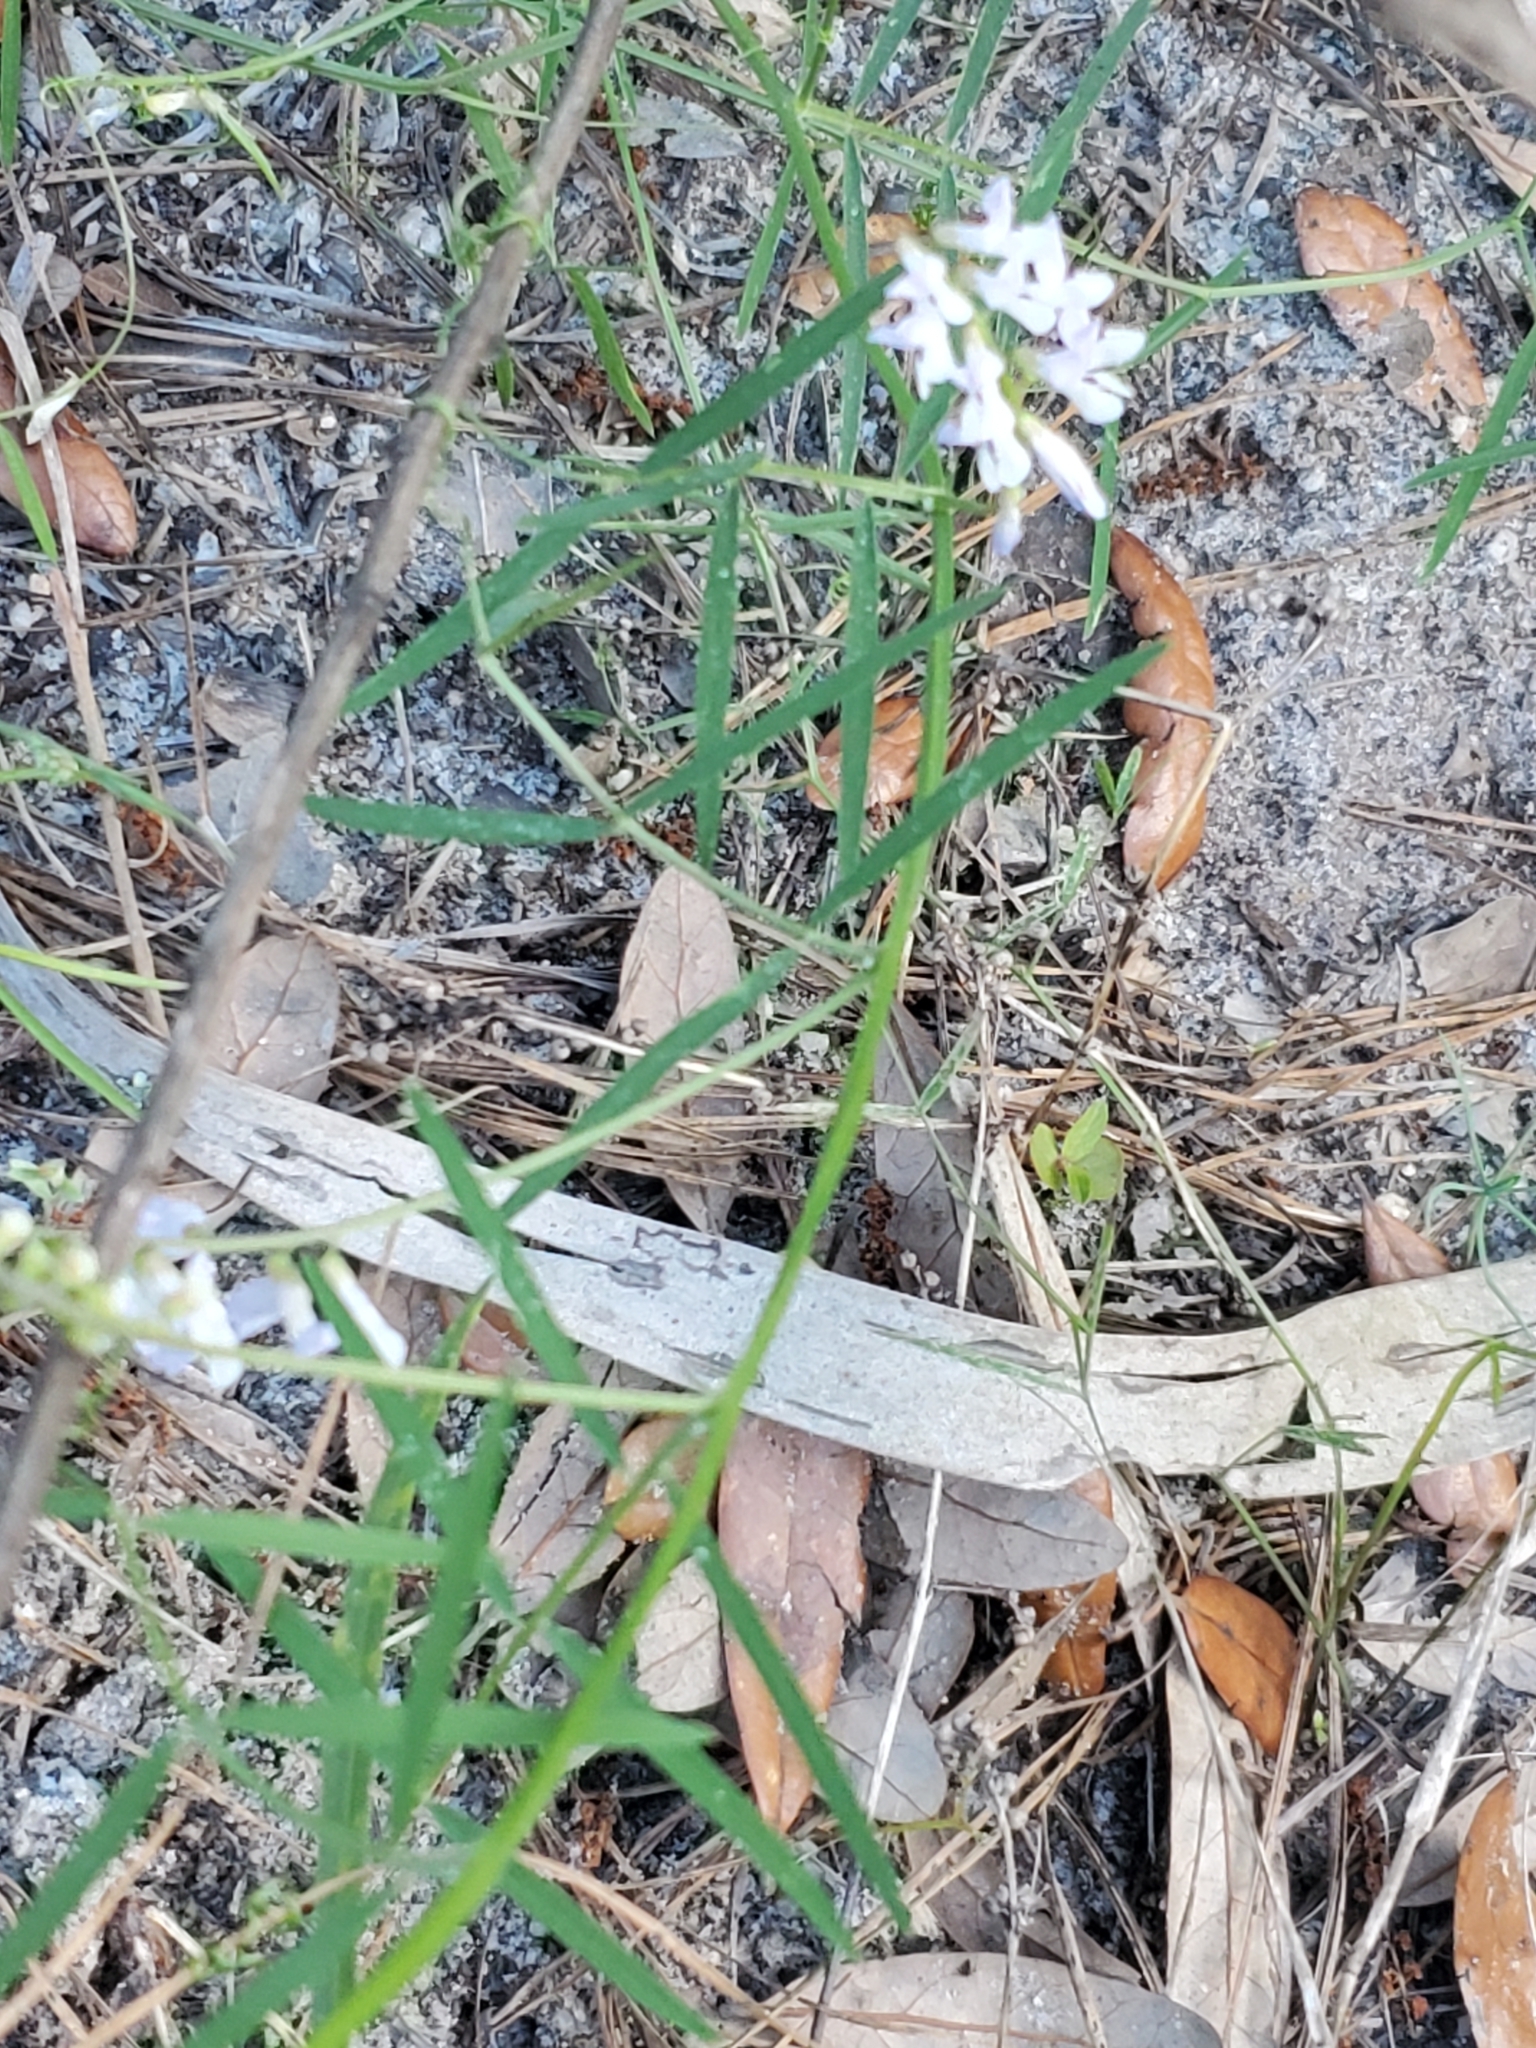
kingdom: Plantae
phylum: Tracheophyta
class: Magnoliopsida
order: Fabales
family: Fabaceae
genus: Vicia
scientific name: Vicia acutifolia
